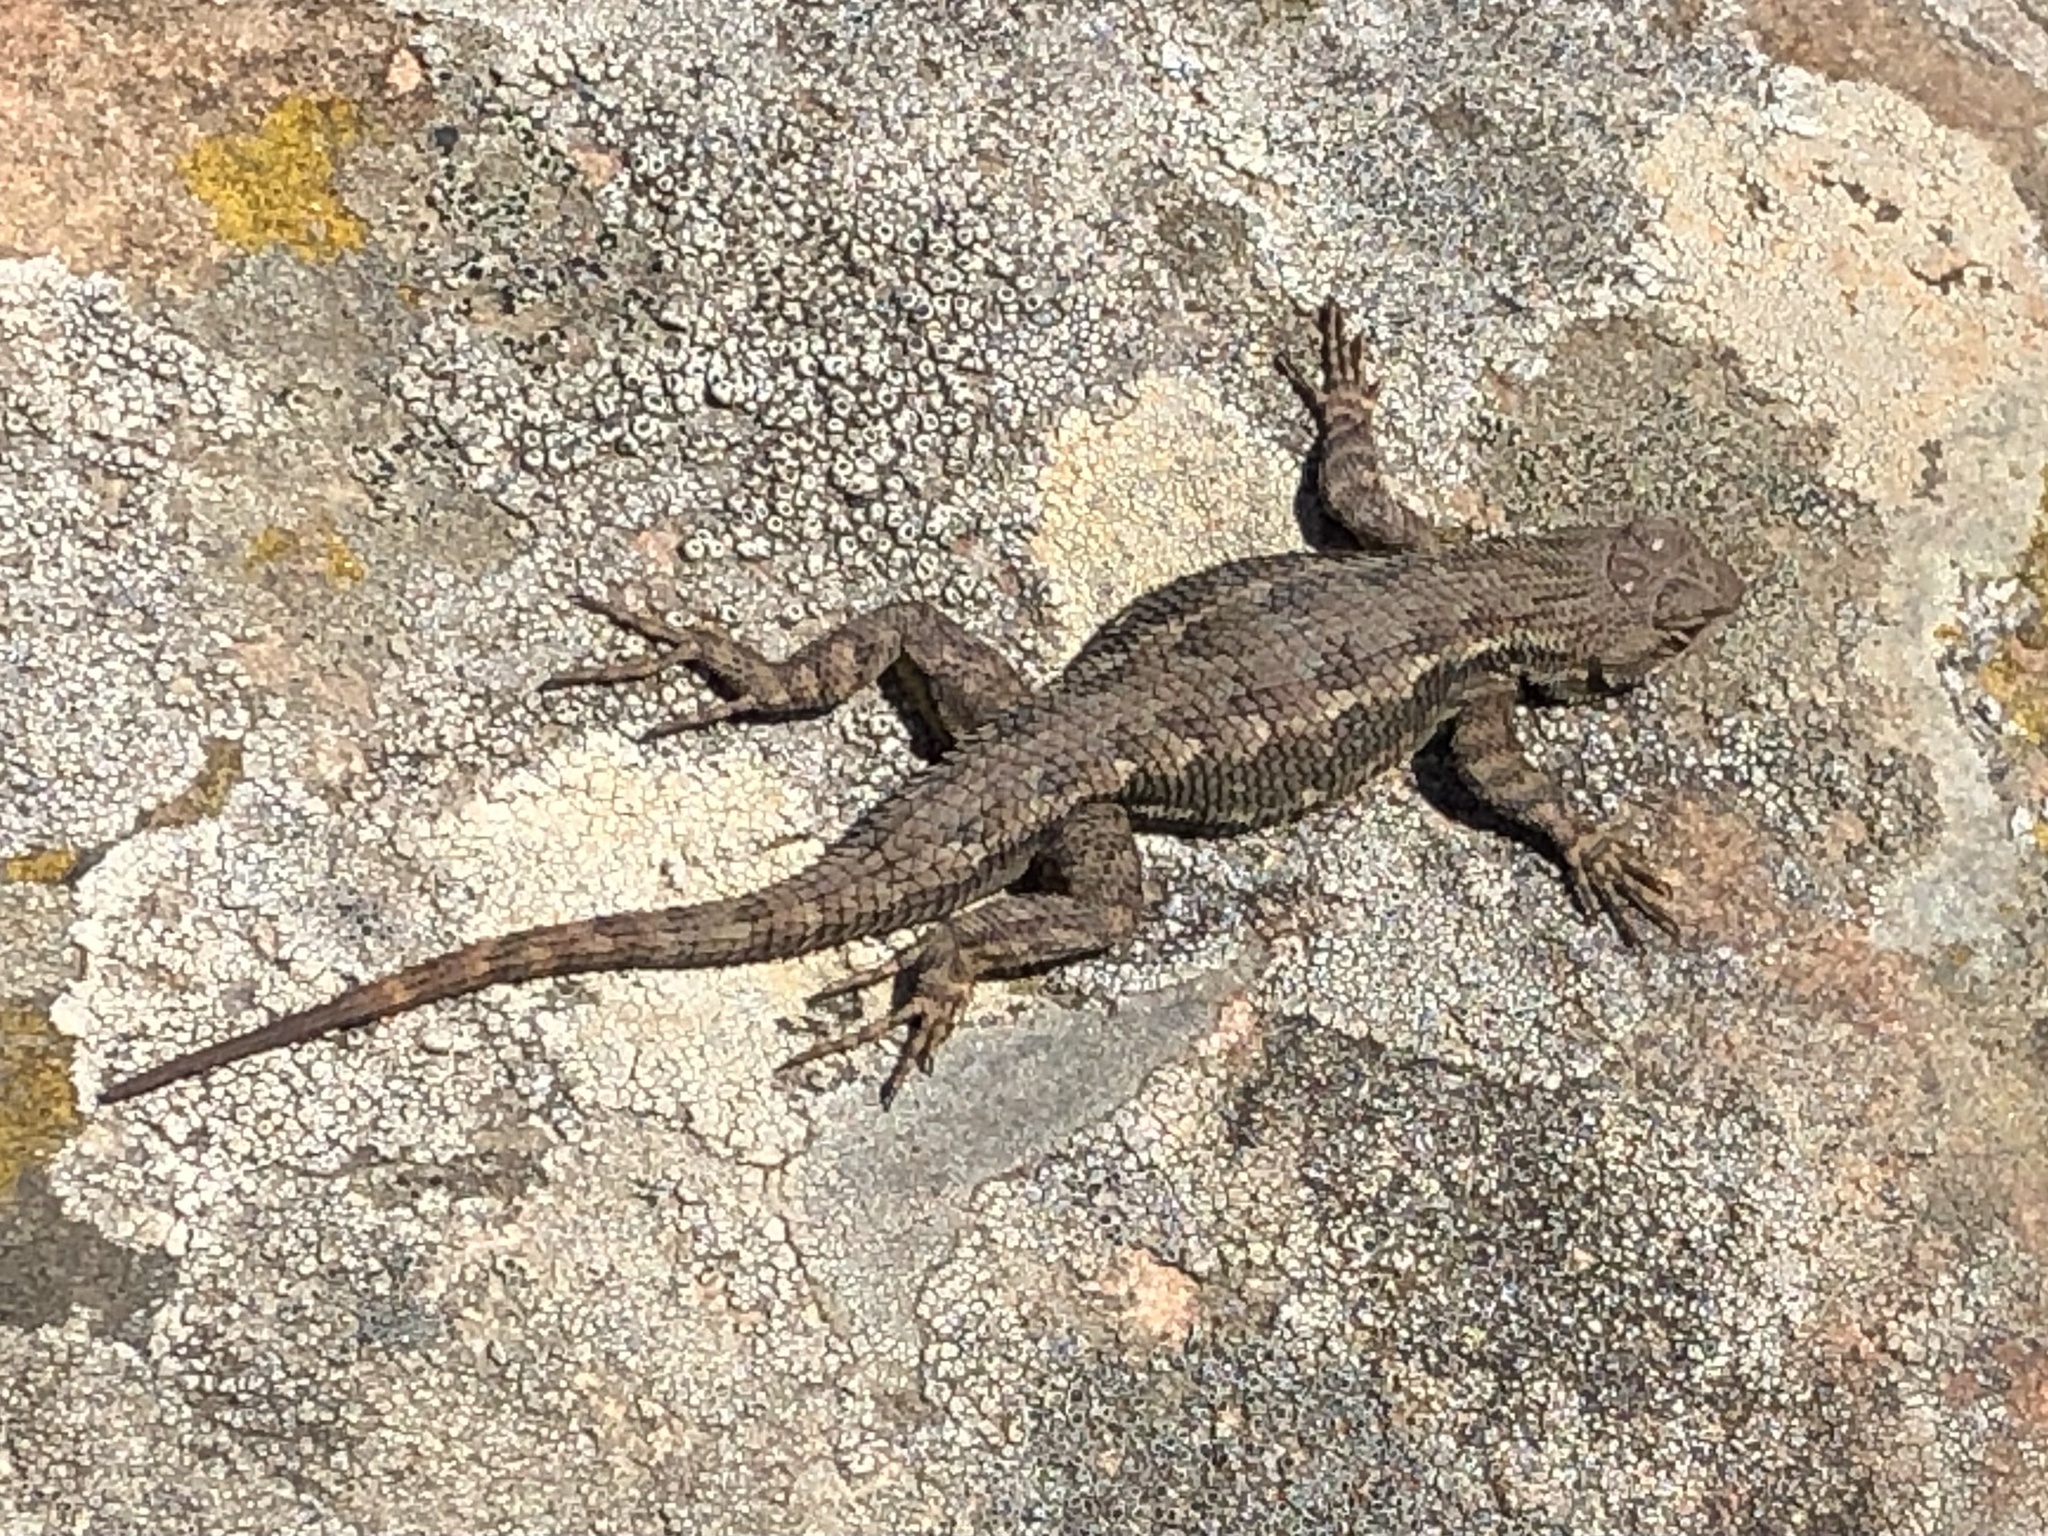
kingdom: Animalia
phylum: Chordata
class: Squamata
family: Phrynosomatidae
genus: Sceloporus
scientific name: Sceloporus occidentalis
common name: Western fence lizard
